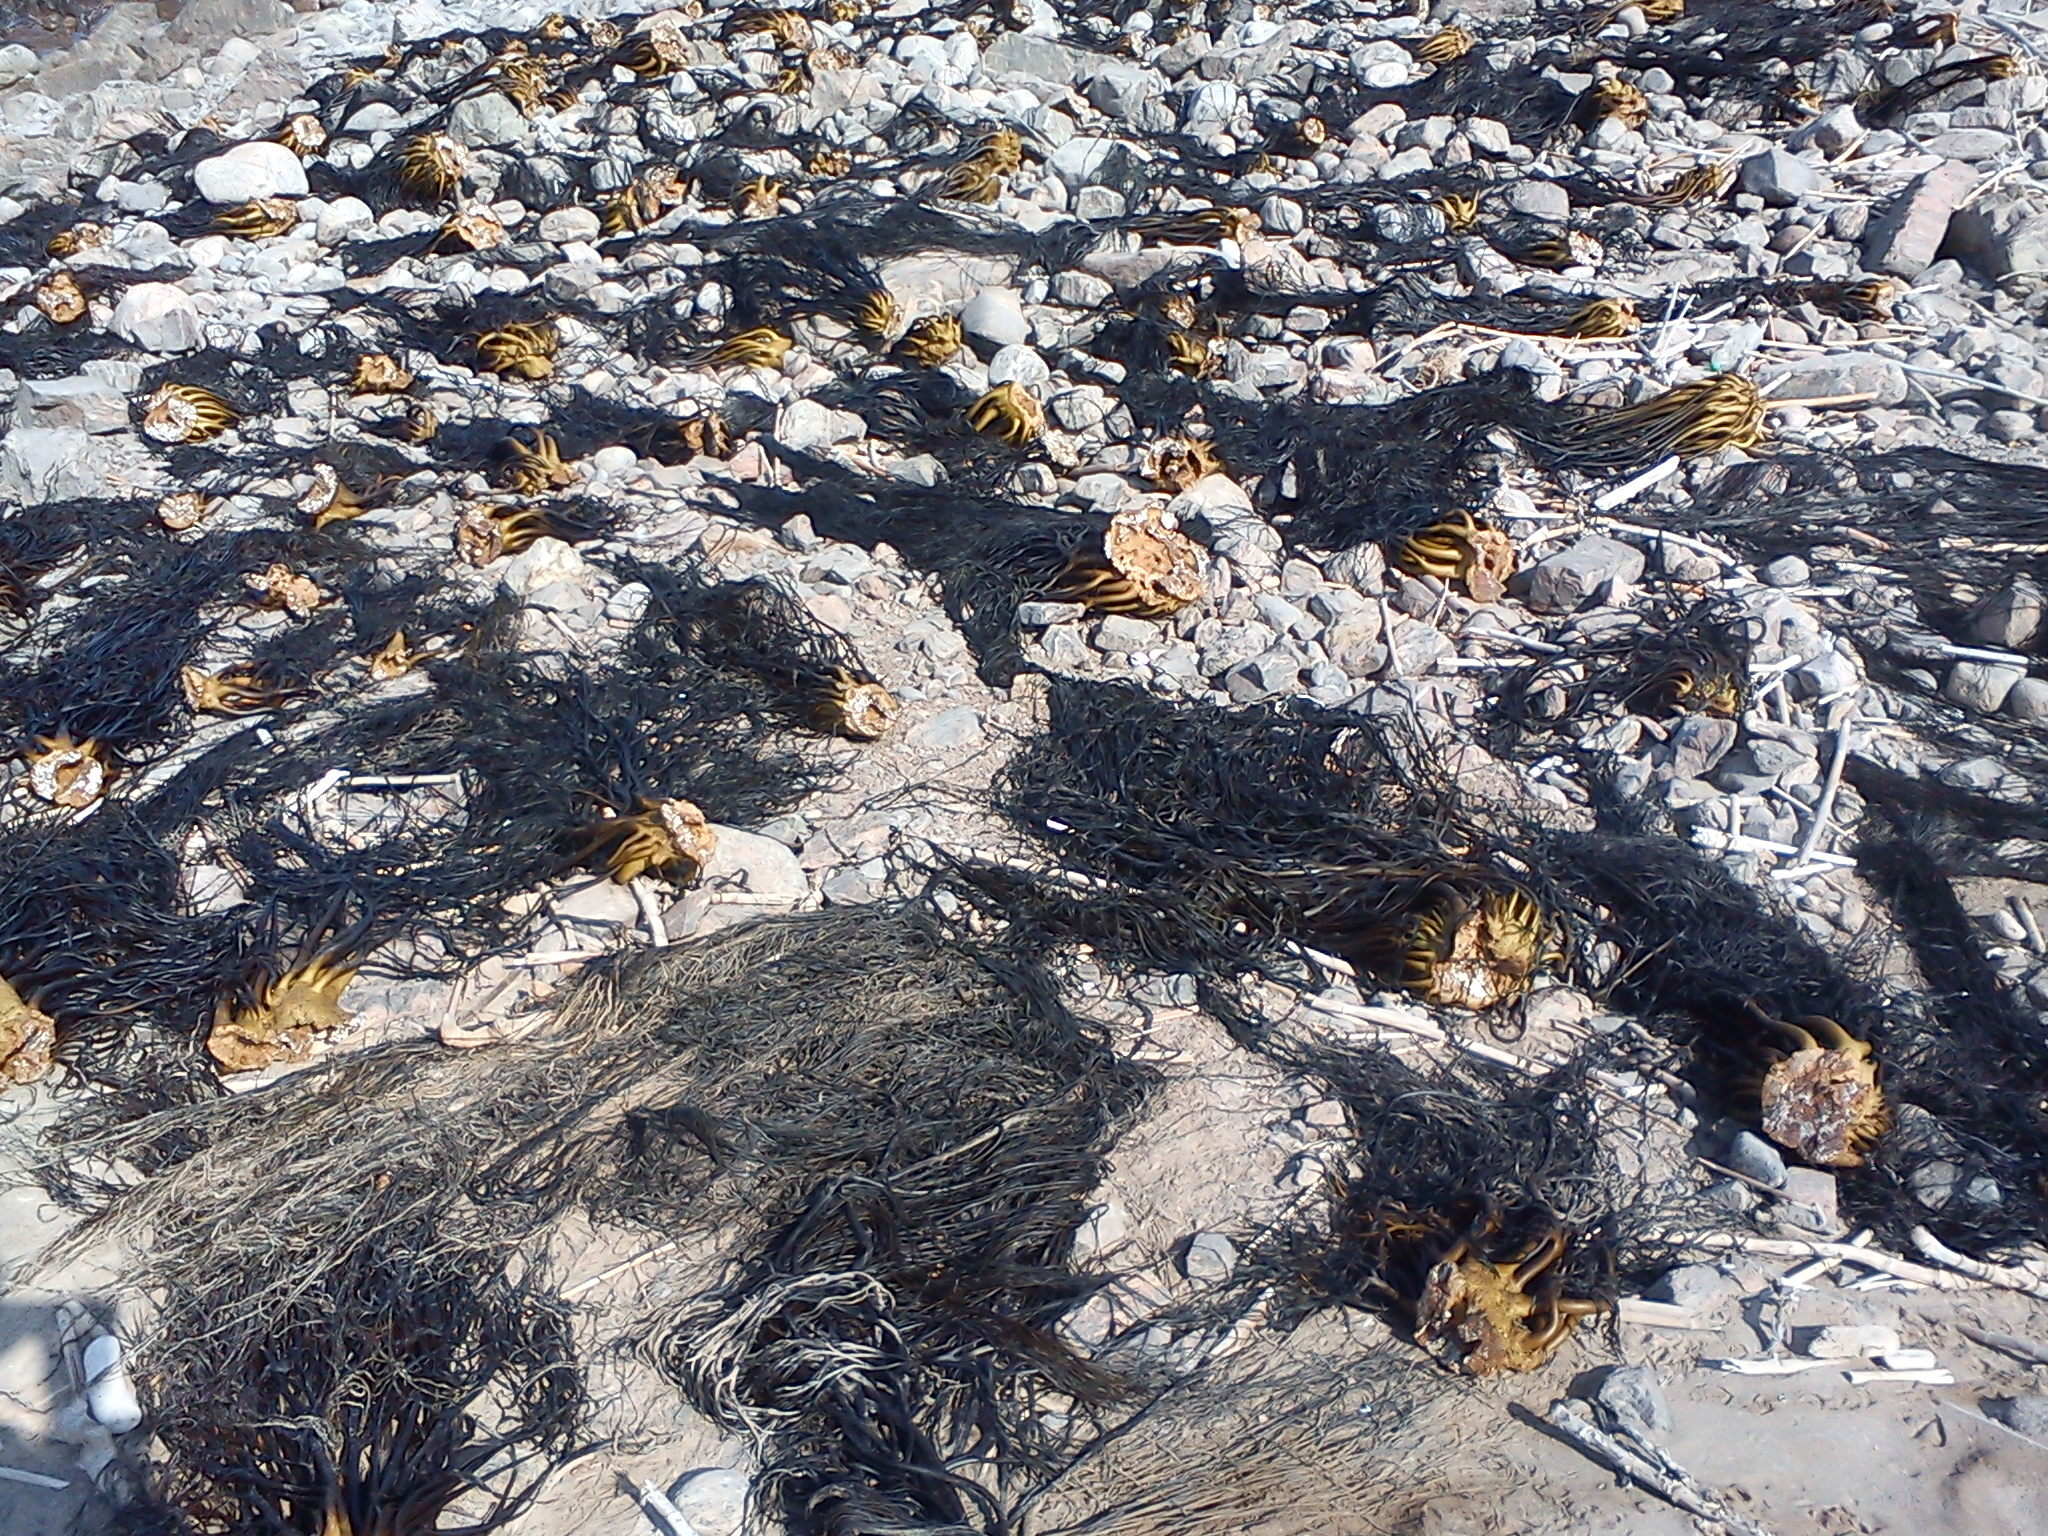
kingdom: Chromista
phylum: Ochrophyta
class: Phaeophyceae
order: Laminariales
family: Lessoniaceae
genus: Lessonia
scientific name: Lessonia
